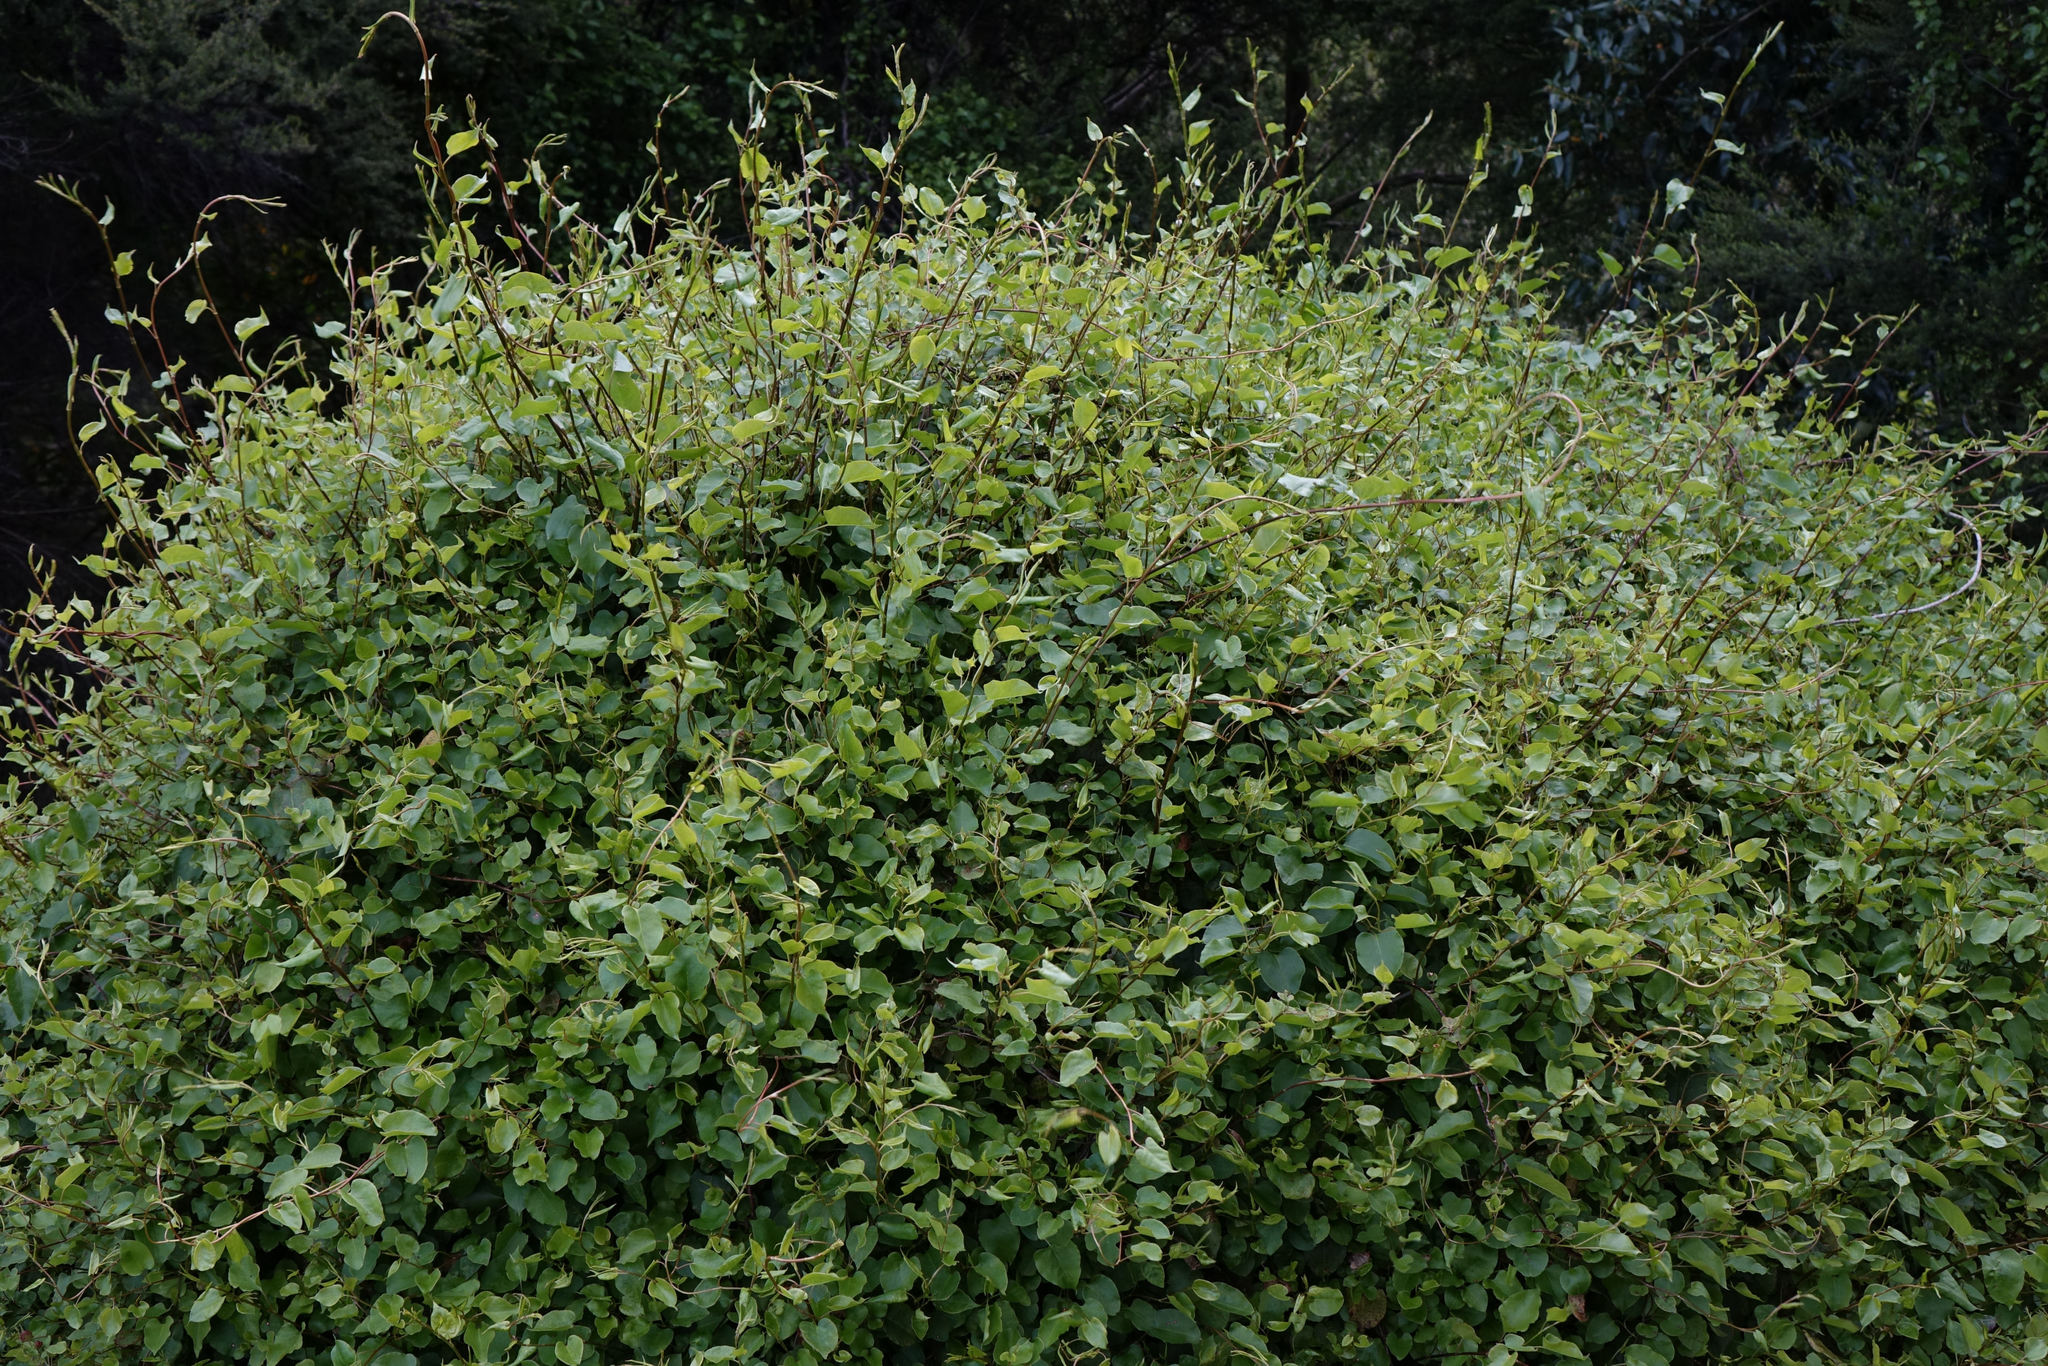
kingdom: Plantae
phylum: Tracheophyta
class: Magnoliopsida
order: Caryophyllales
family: Polygonaceae
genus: Muehlenbeckia
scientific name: Muehlenbeckia australis
